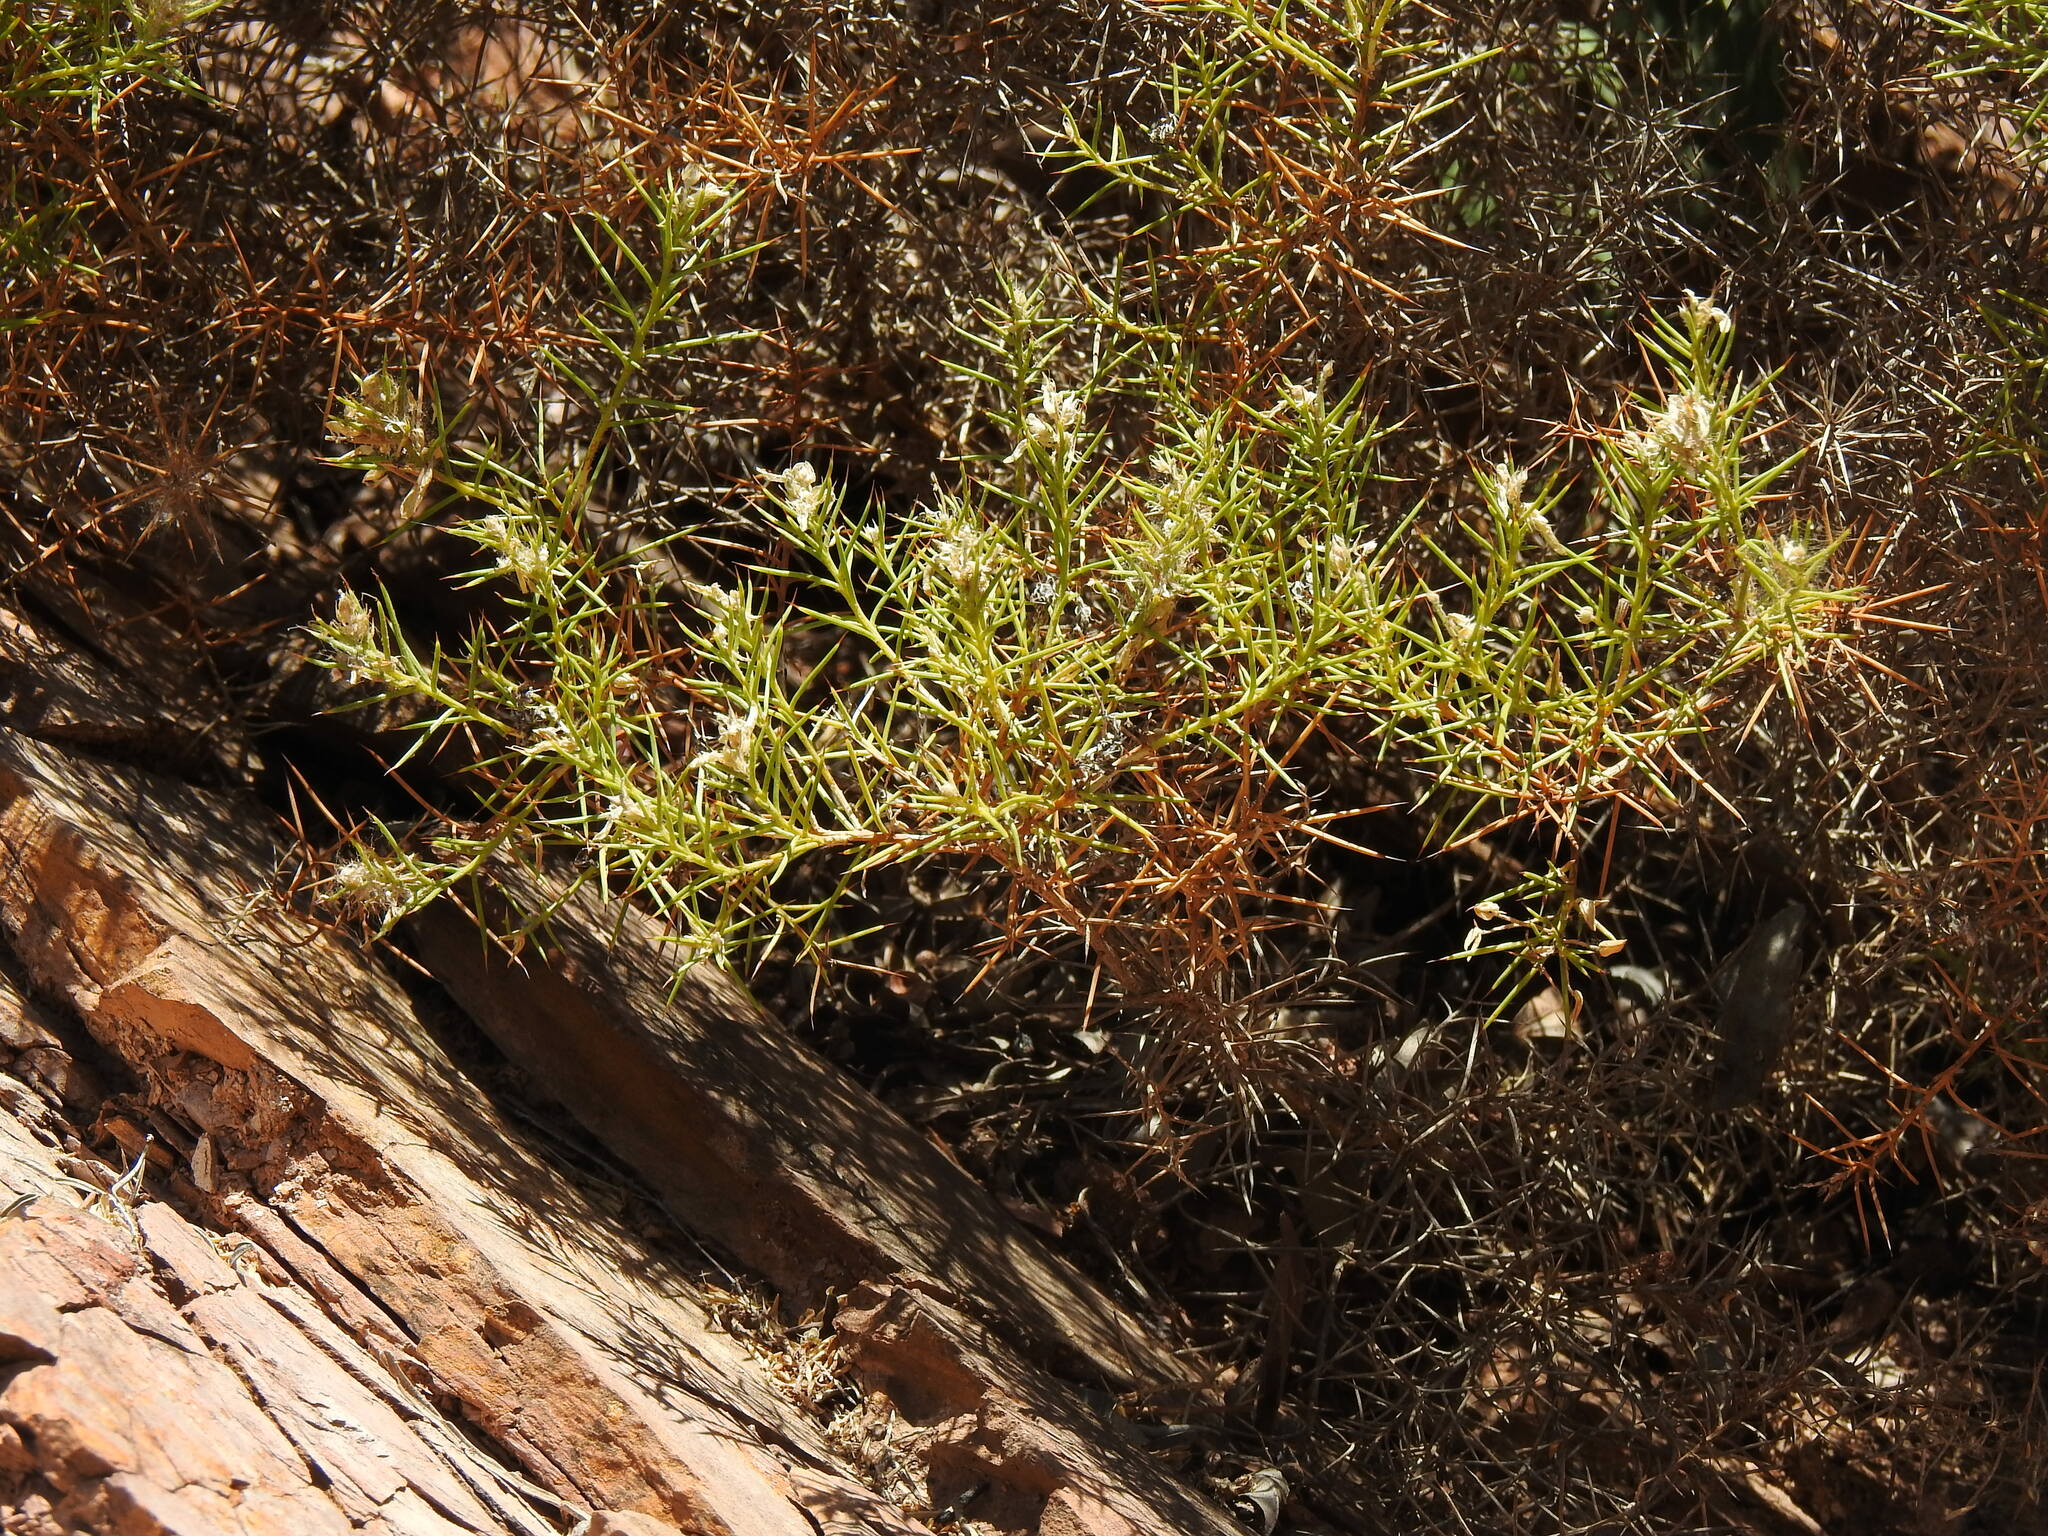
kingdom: Plantae
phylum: Tracheophyta
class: Magnoliopsida
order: Fabales
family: Fabaceae
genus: Genista
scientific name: Genista hirsuta
